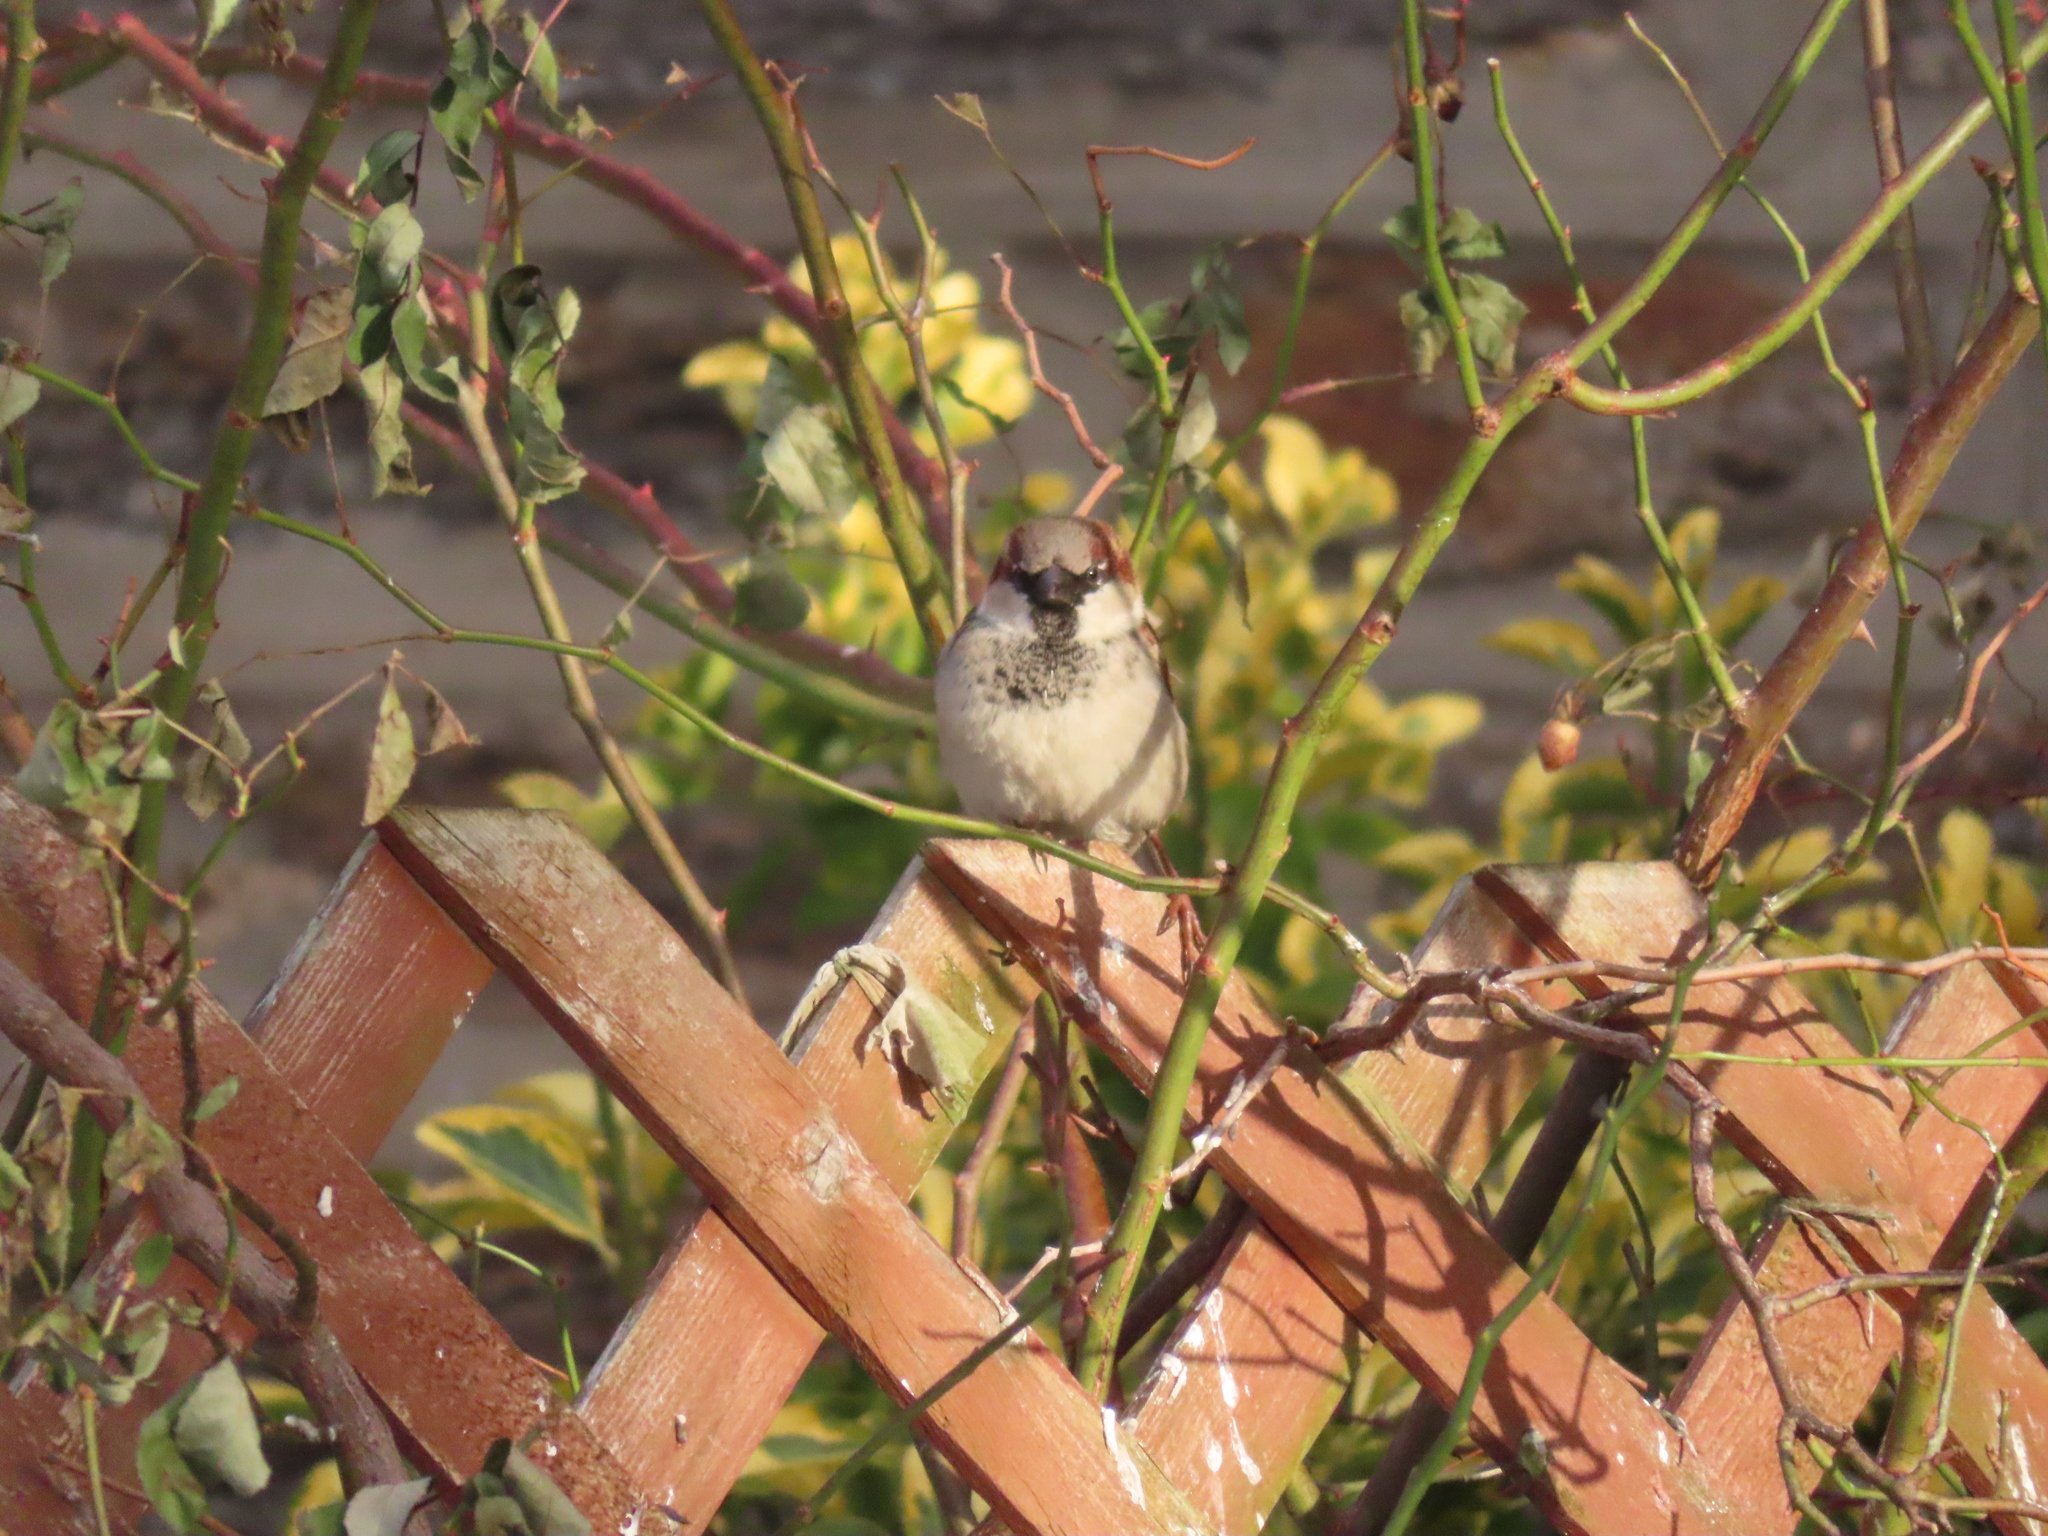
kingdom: Animalia
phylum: Chordata
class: Aves
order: Passeriformes
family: Passeridae
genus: Passer
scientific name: Passer domesticus
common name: House sparrow
